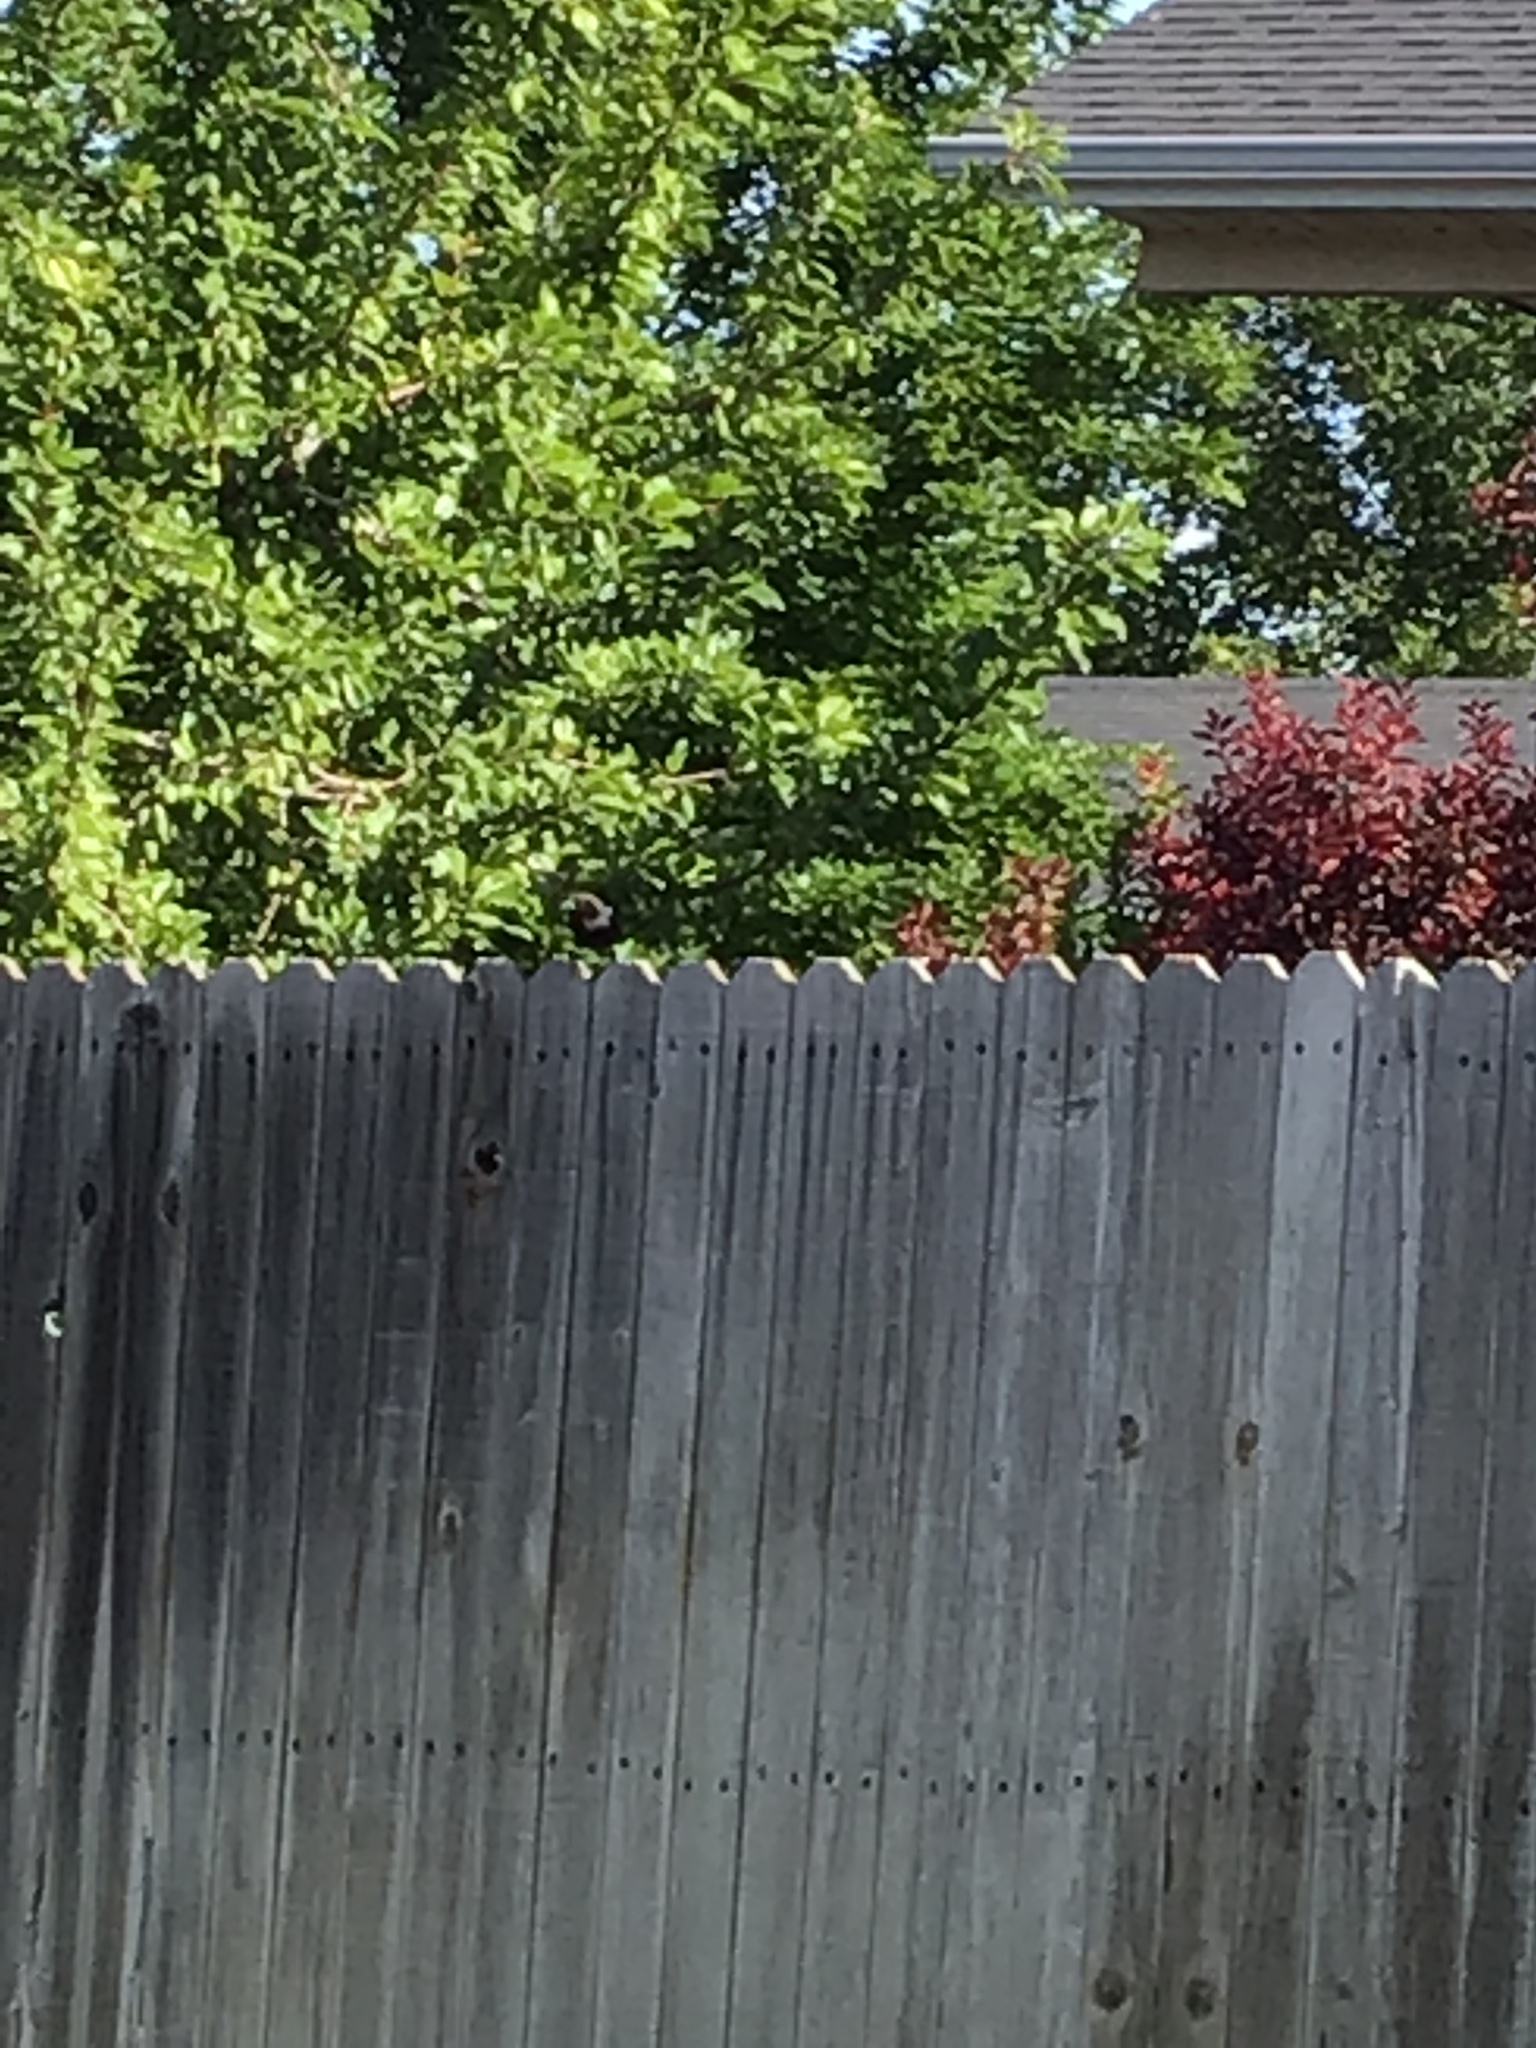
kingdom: Animalia
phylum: Chordata
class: Aves
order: Passeriformes
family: Icteridae
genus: Molothrus
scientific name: Molothrus ater
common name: Brown-headed cowbird
